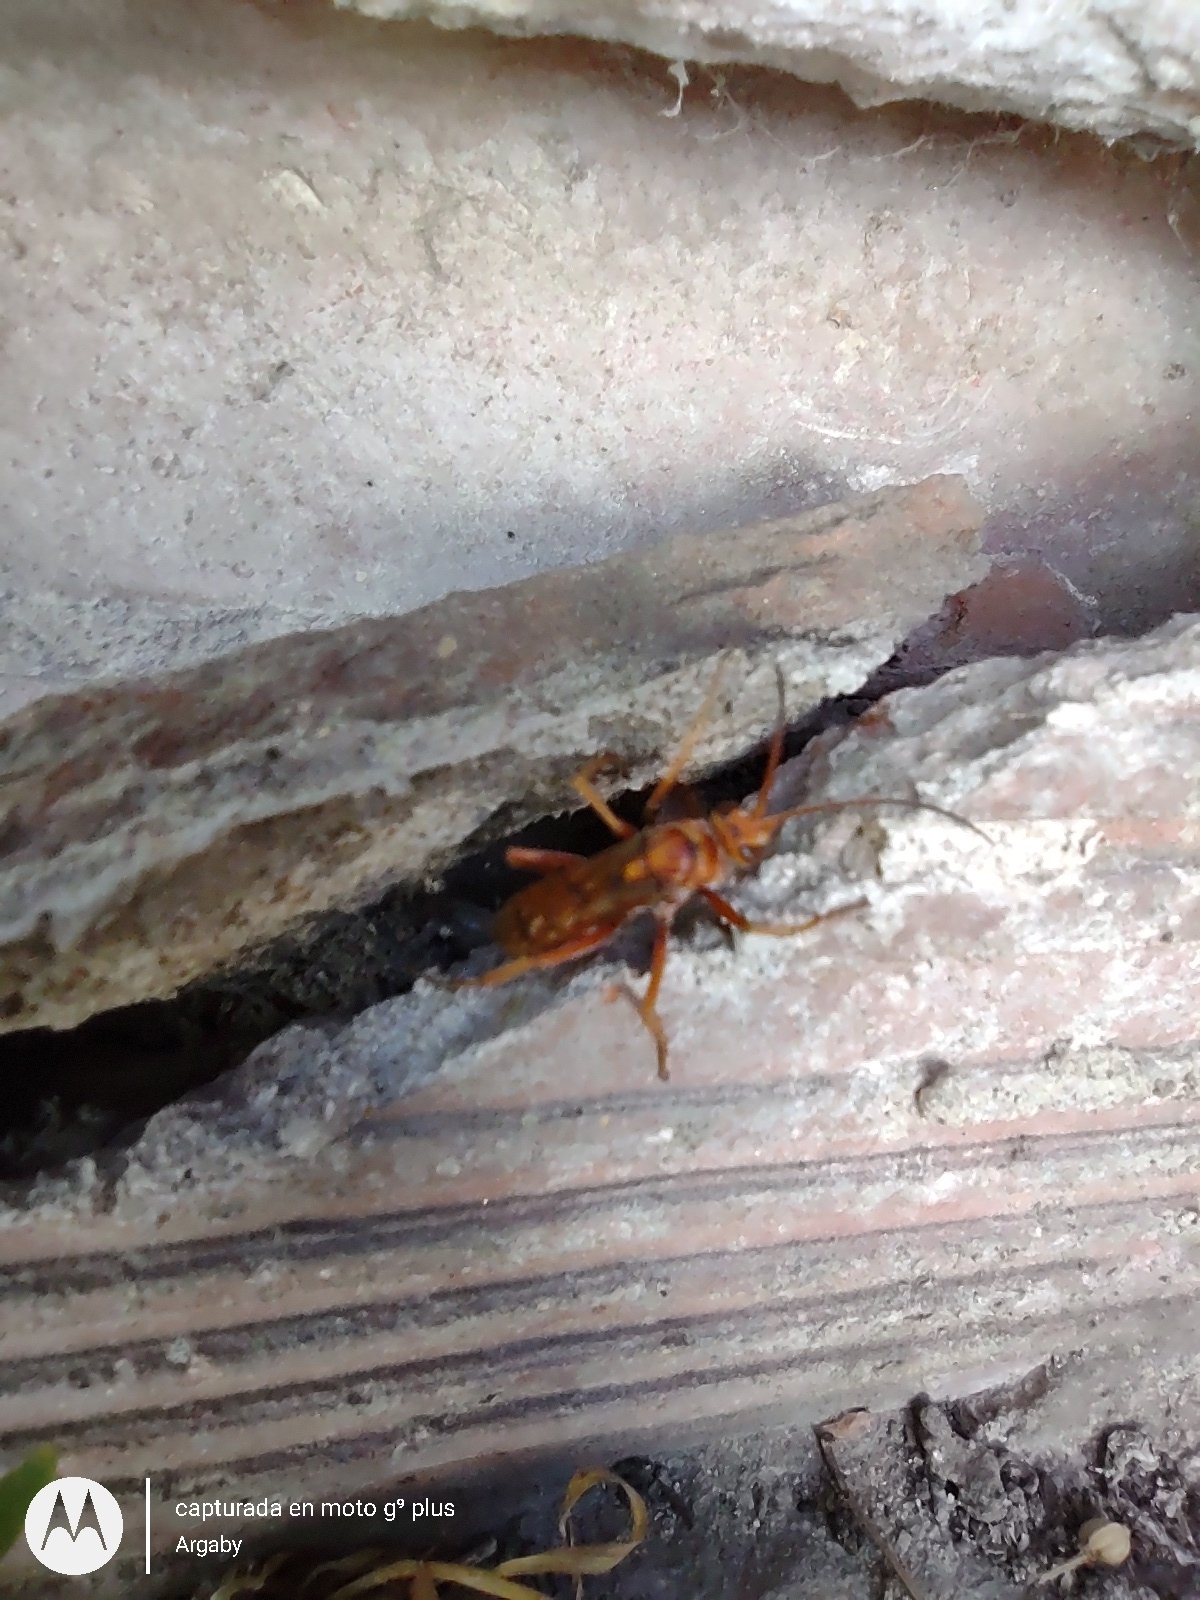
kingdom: Animalia
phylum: Arthropoda
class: Insecta
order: Hymenoptera
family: Pompilidae
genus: Tachypompilus
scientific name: Tachypompilus mendozae
